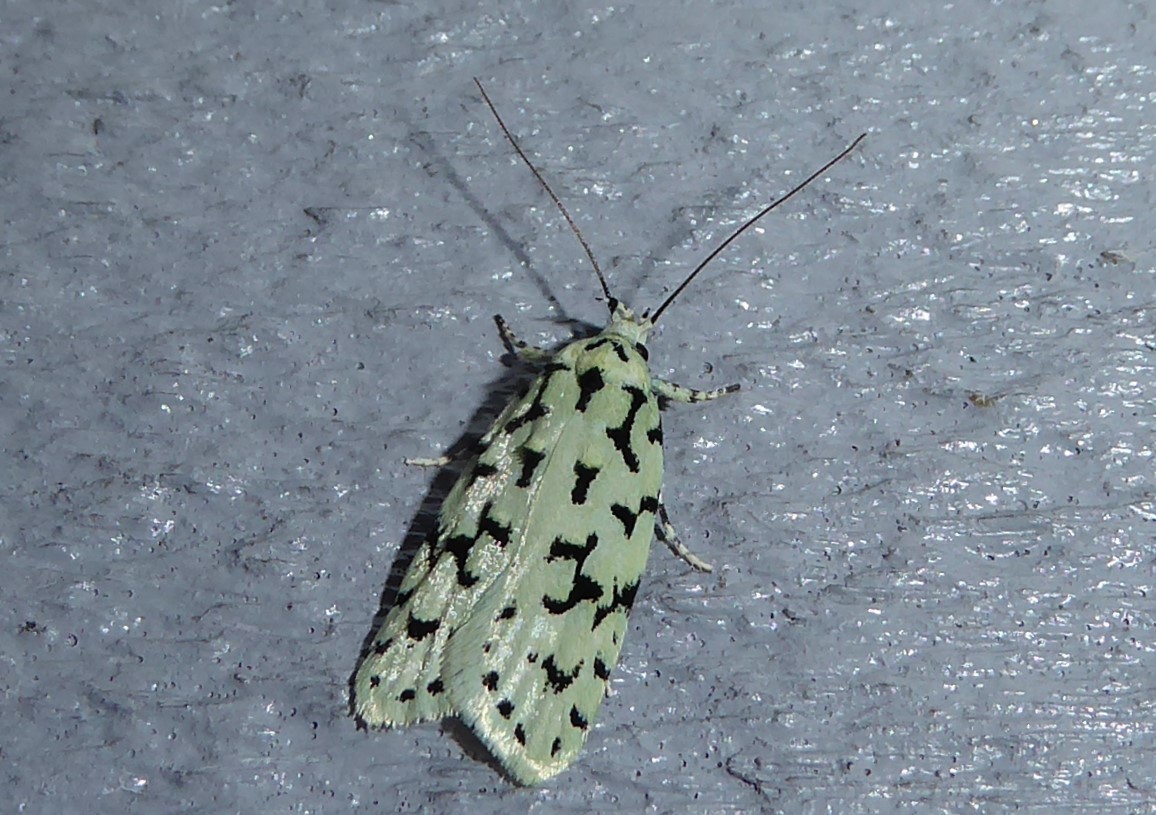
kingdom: Animalia
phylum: Arthropoda
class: Insecta
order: Lepidoptera
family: Oecophoridae
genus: Izatha
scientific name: Izatha huttoni
